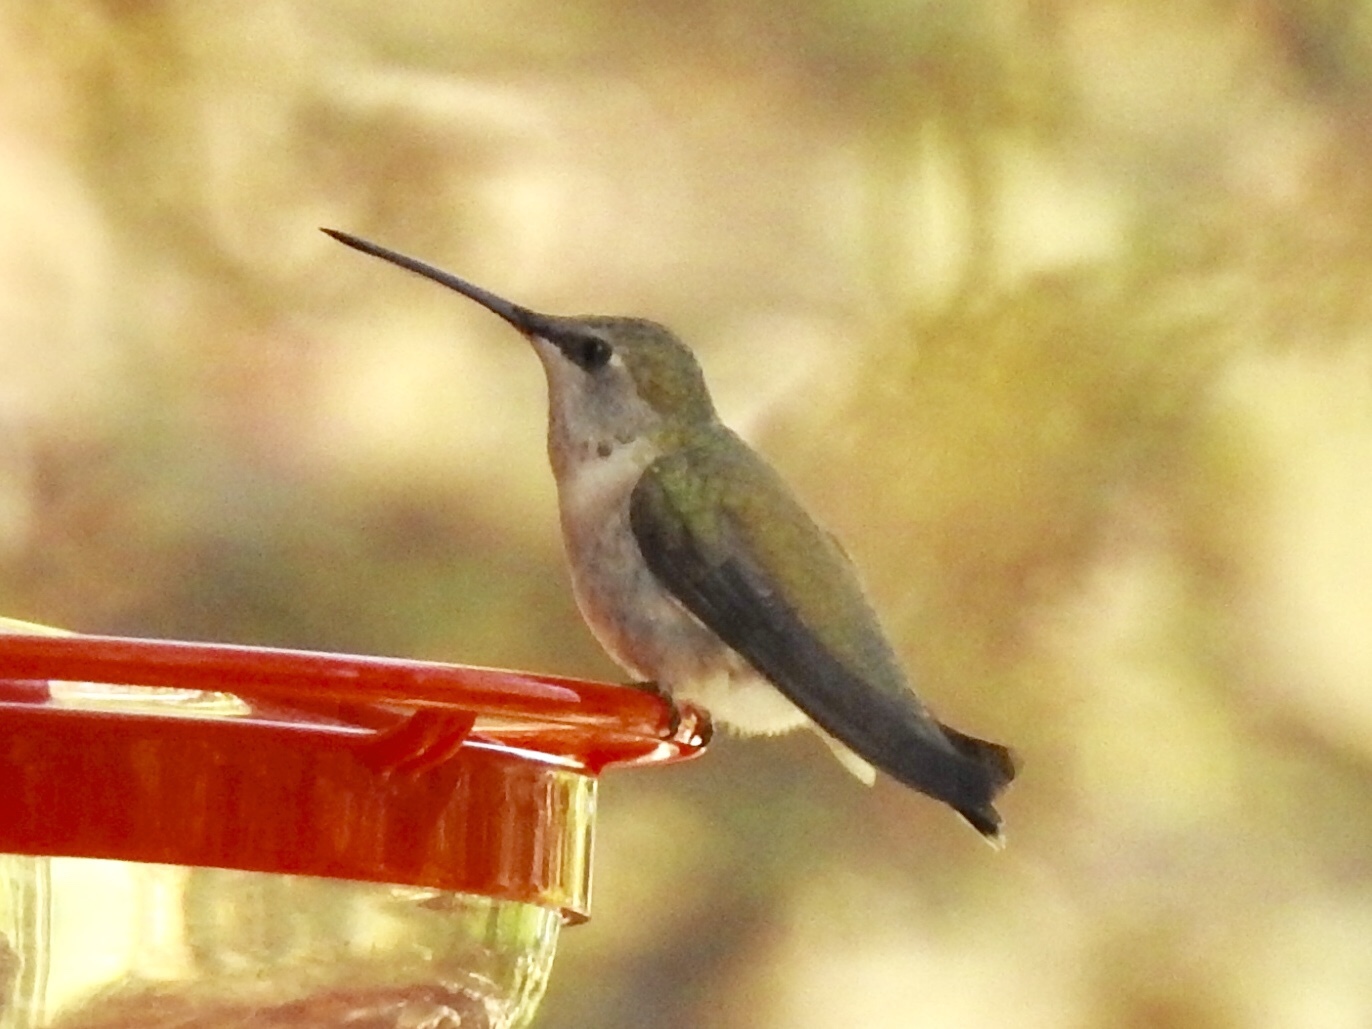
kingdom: Animalia
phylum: Chordata
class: Aves
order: Apodiformes
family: Trochilidae
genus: Archilochus
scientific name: Archilochus alexandri
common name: Black-chinned hummingbird
